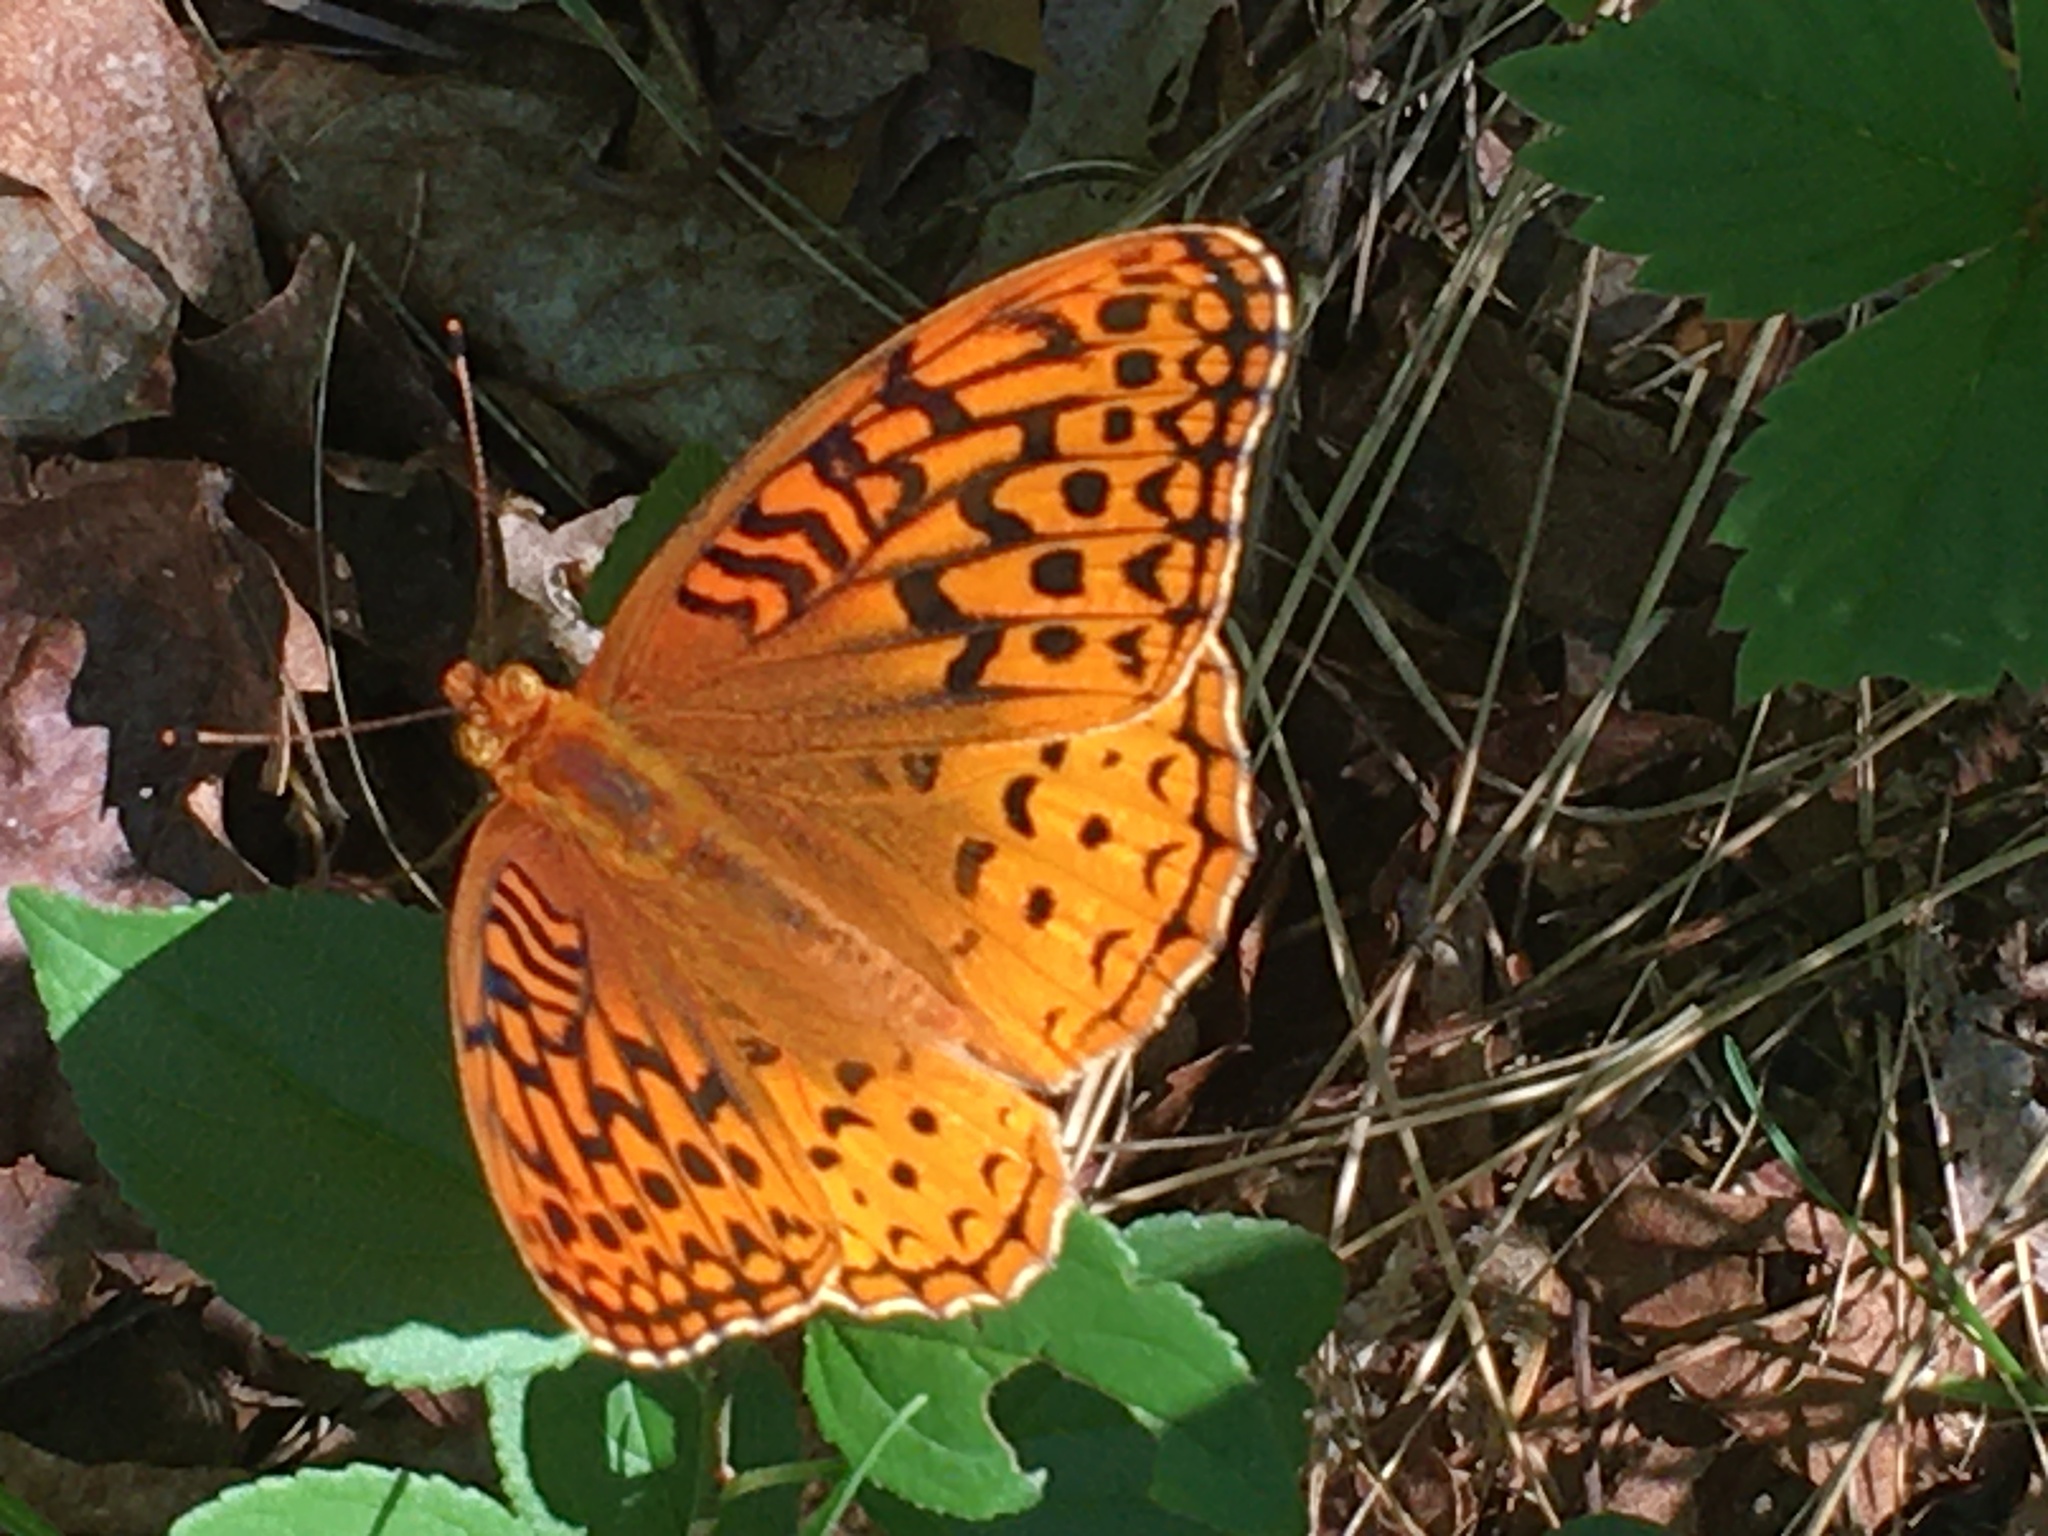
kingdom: Animalia
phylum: Arthropoda
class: Insecta
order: Lepidoptera
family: Nymphalidae
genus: Speyeria
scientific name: Speyeria cybele
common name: Great spangled fritillary
